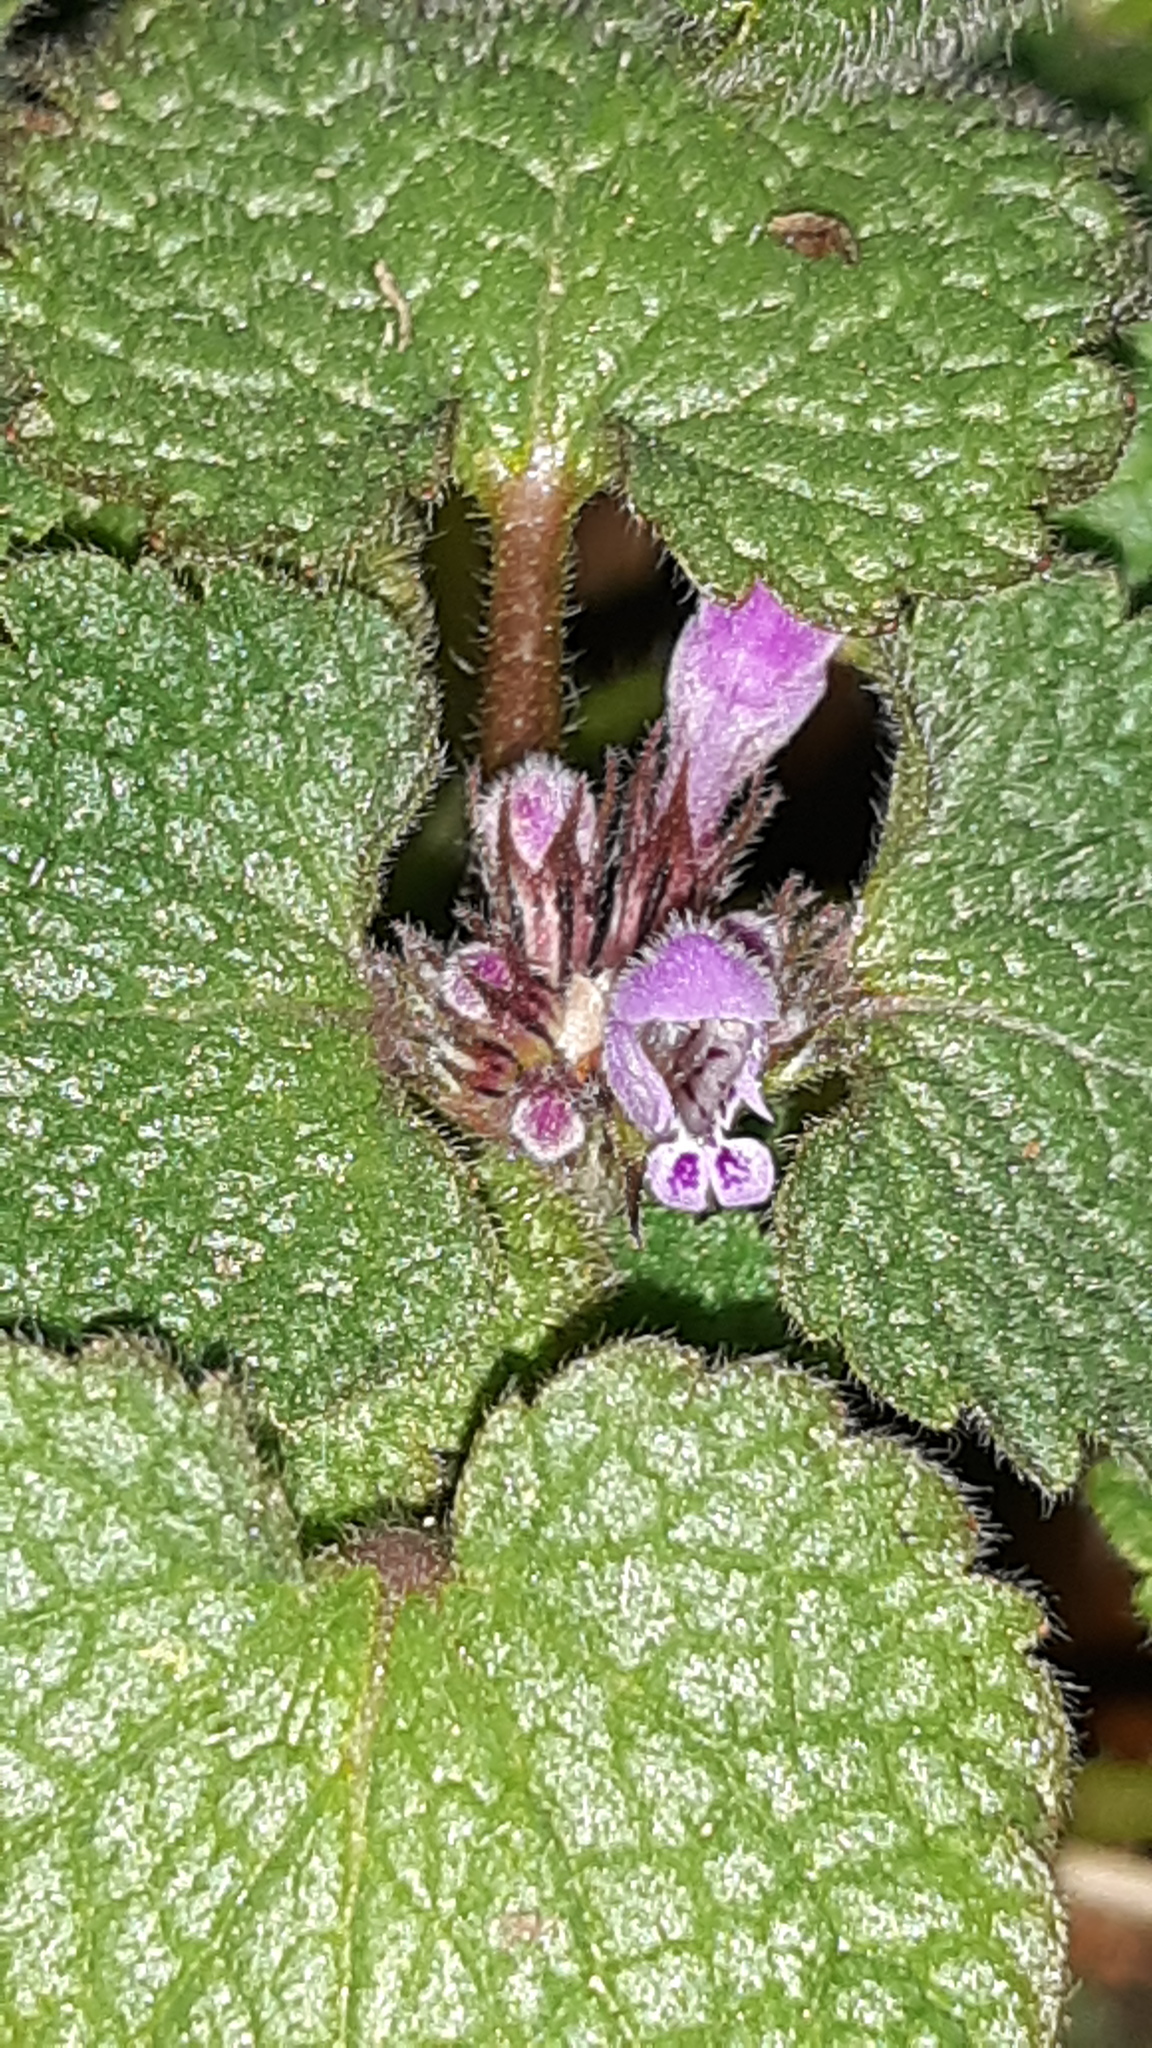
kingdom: Plantae
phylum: Tracheophyta
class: Magnoliopsida
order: Lamiales
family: Lamiaceae
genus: Lamium
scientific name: Lamium purpureum
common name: Red dead-nettle
